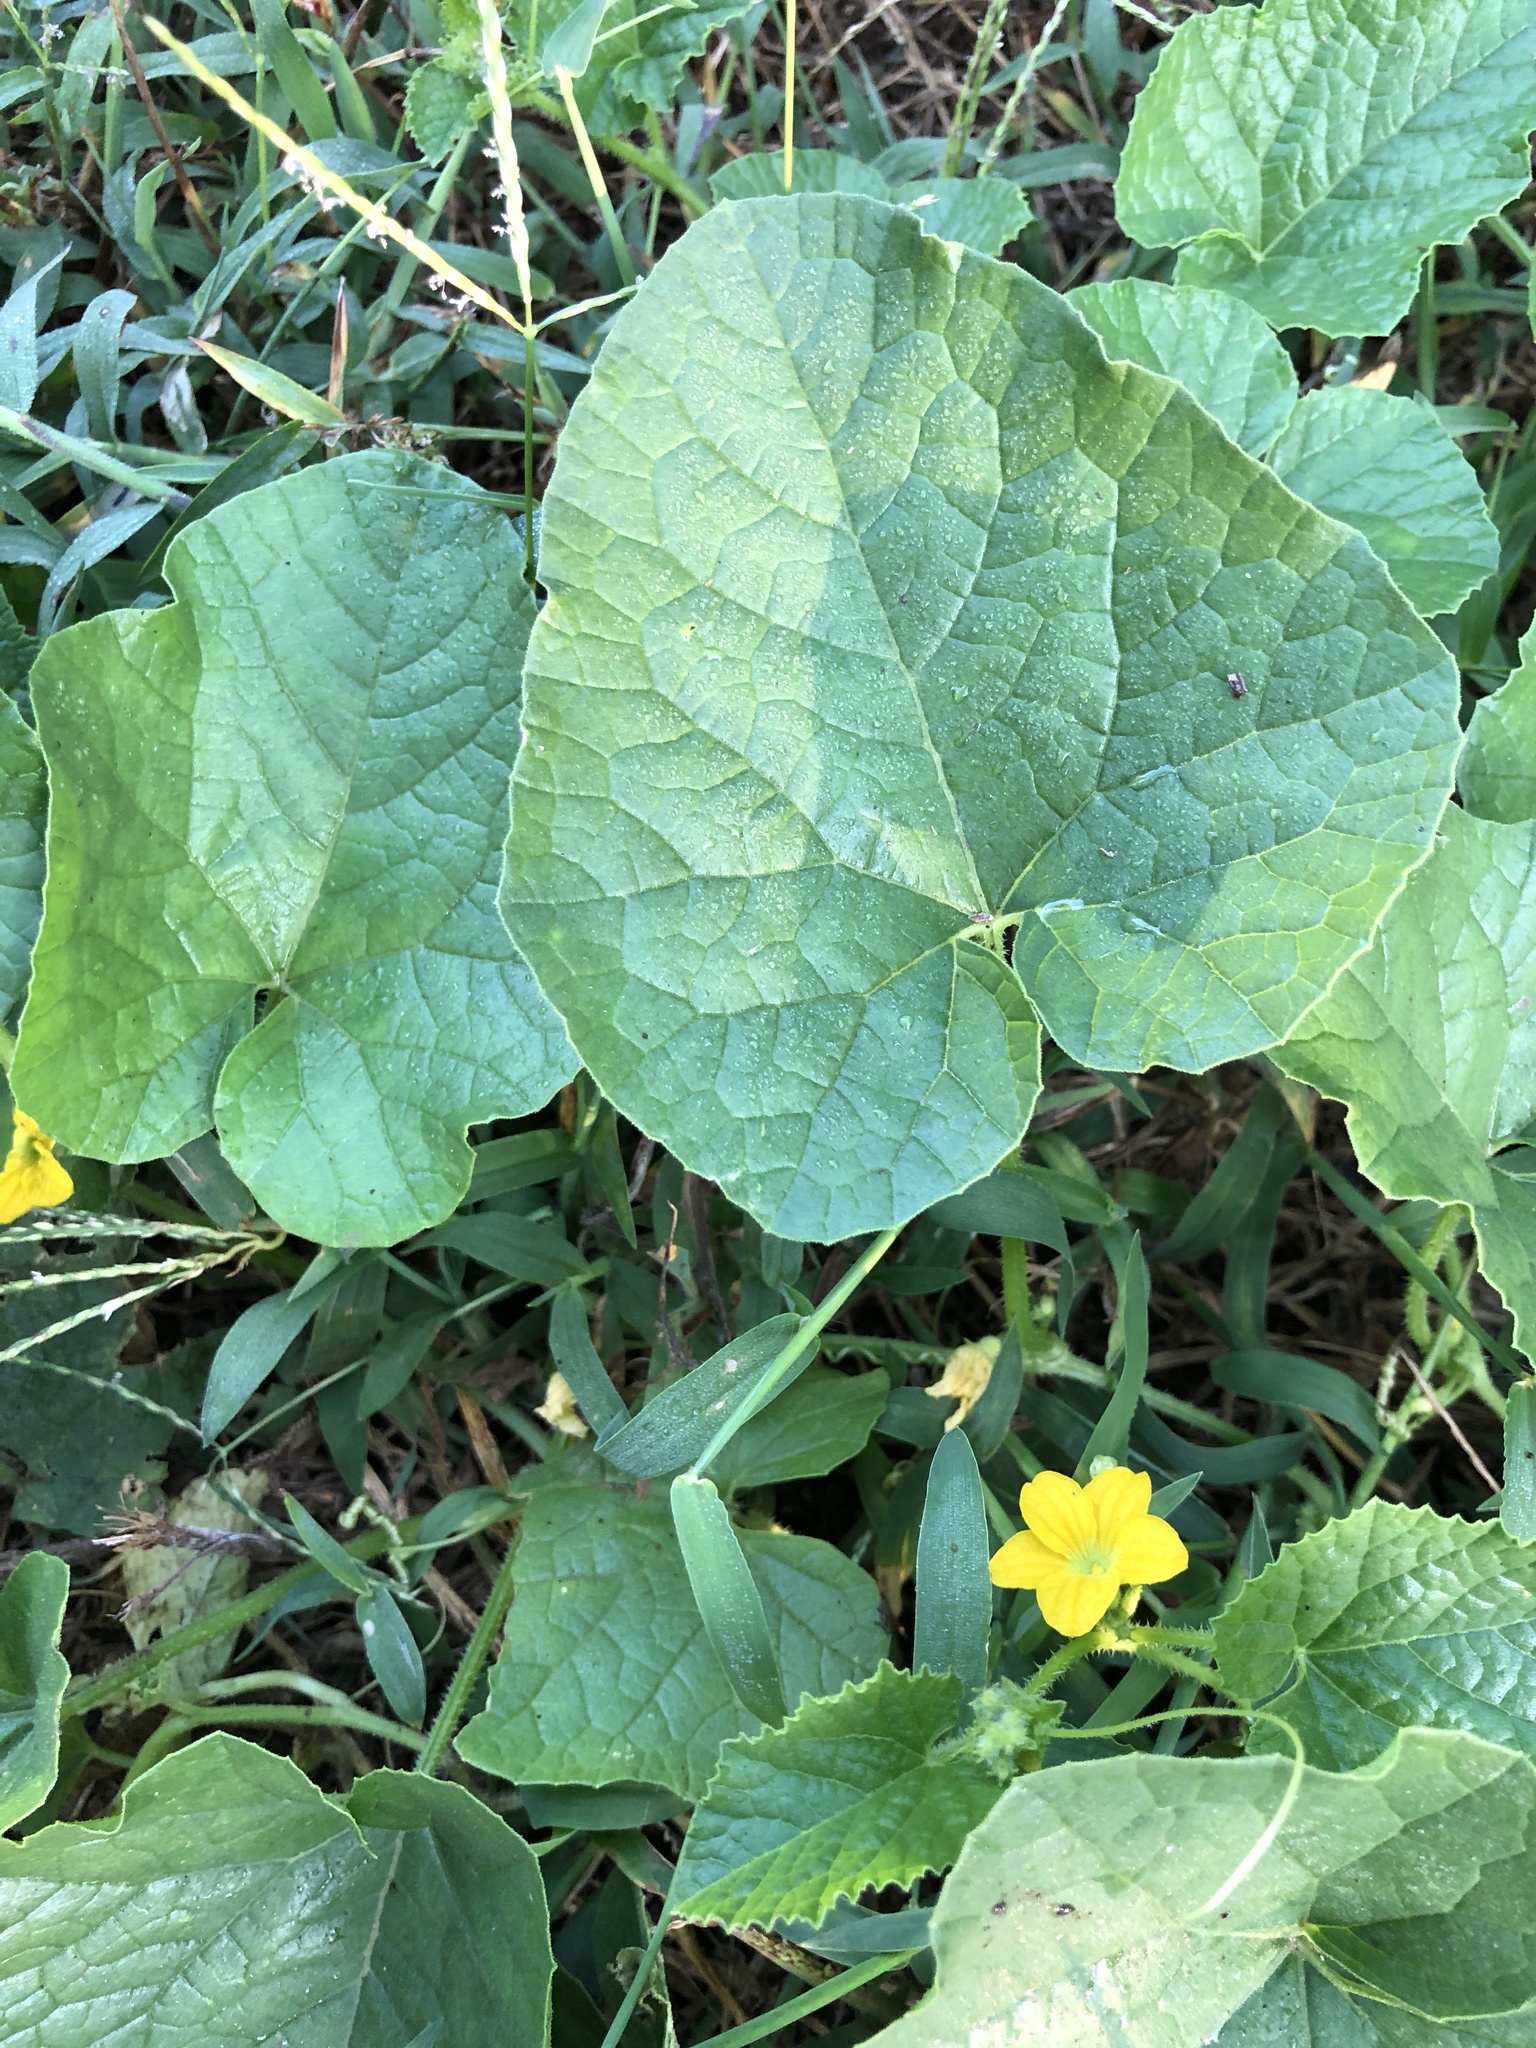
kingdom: Plantae
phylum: Tracheophyta
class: Magnoliopsida
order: Cucurbitales
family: Cucurbitaceae
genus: Cucumis
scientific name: Cucumis melo
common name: Melon
